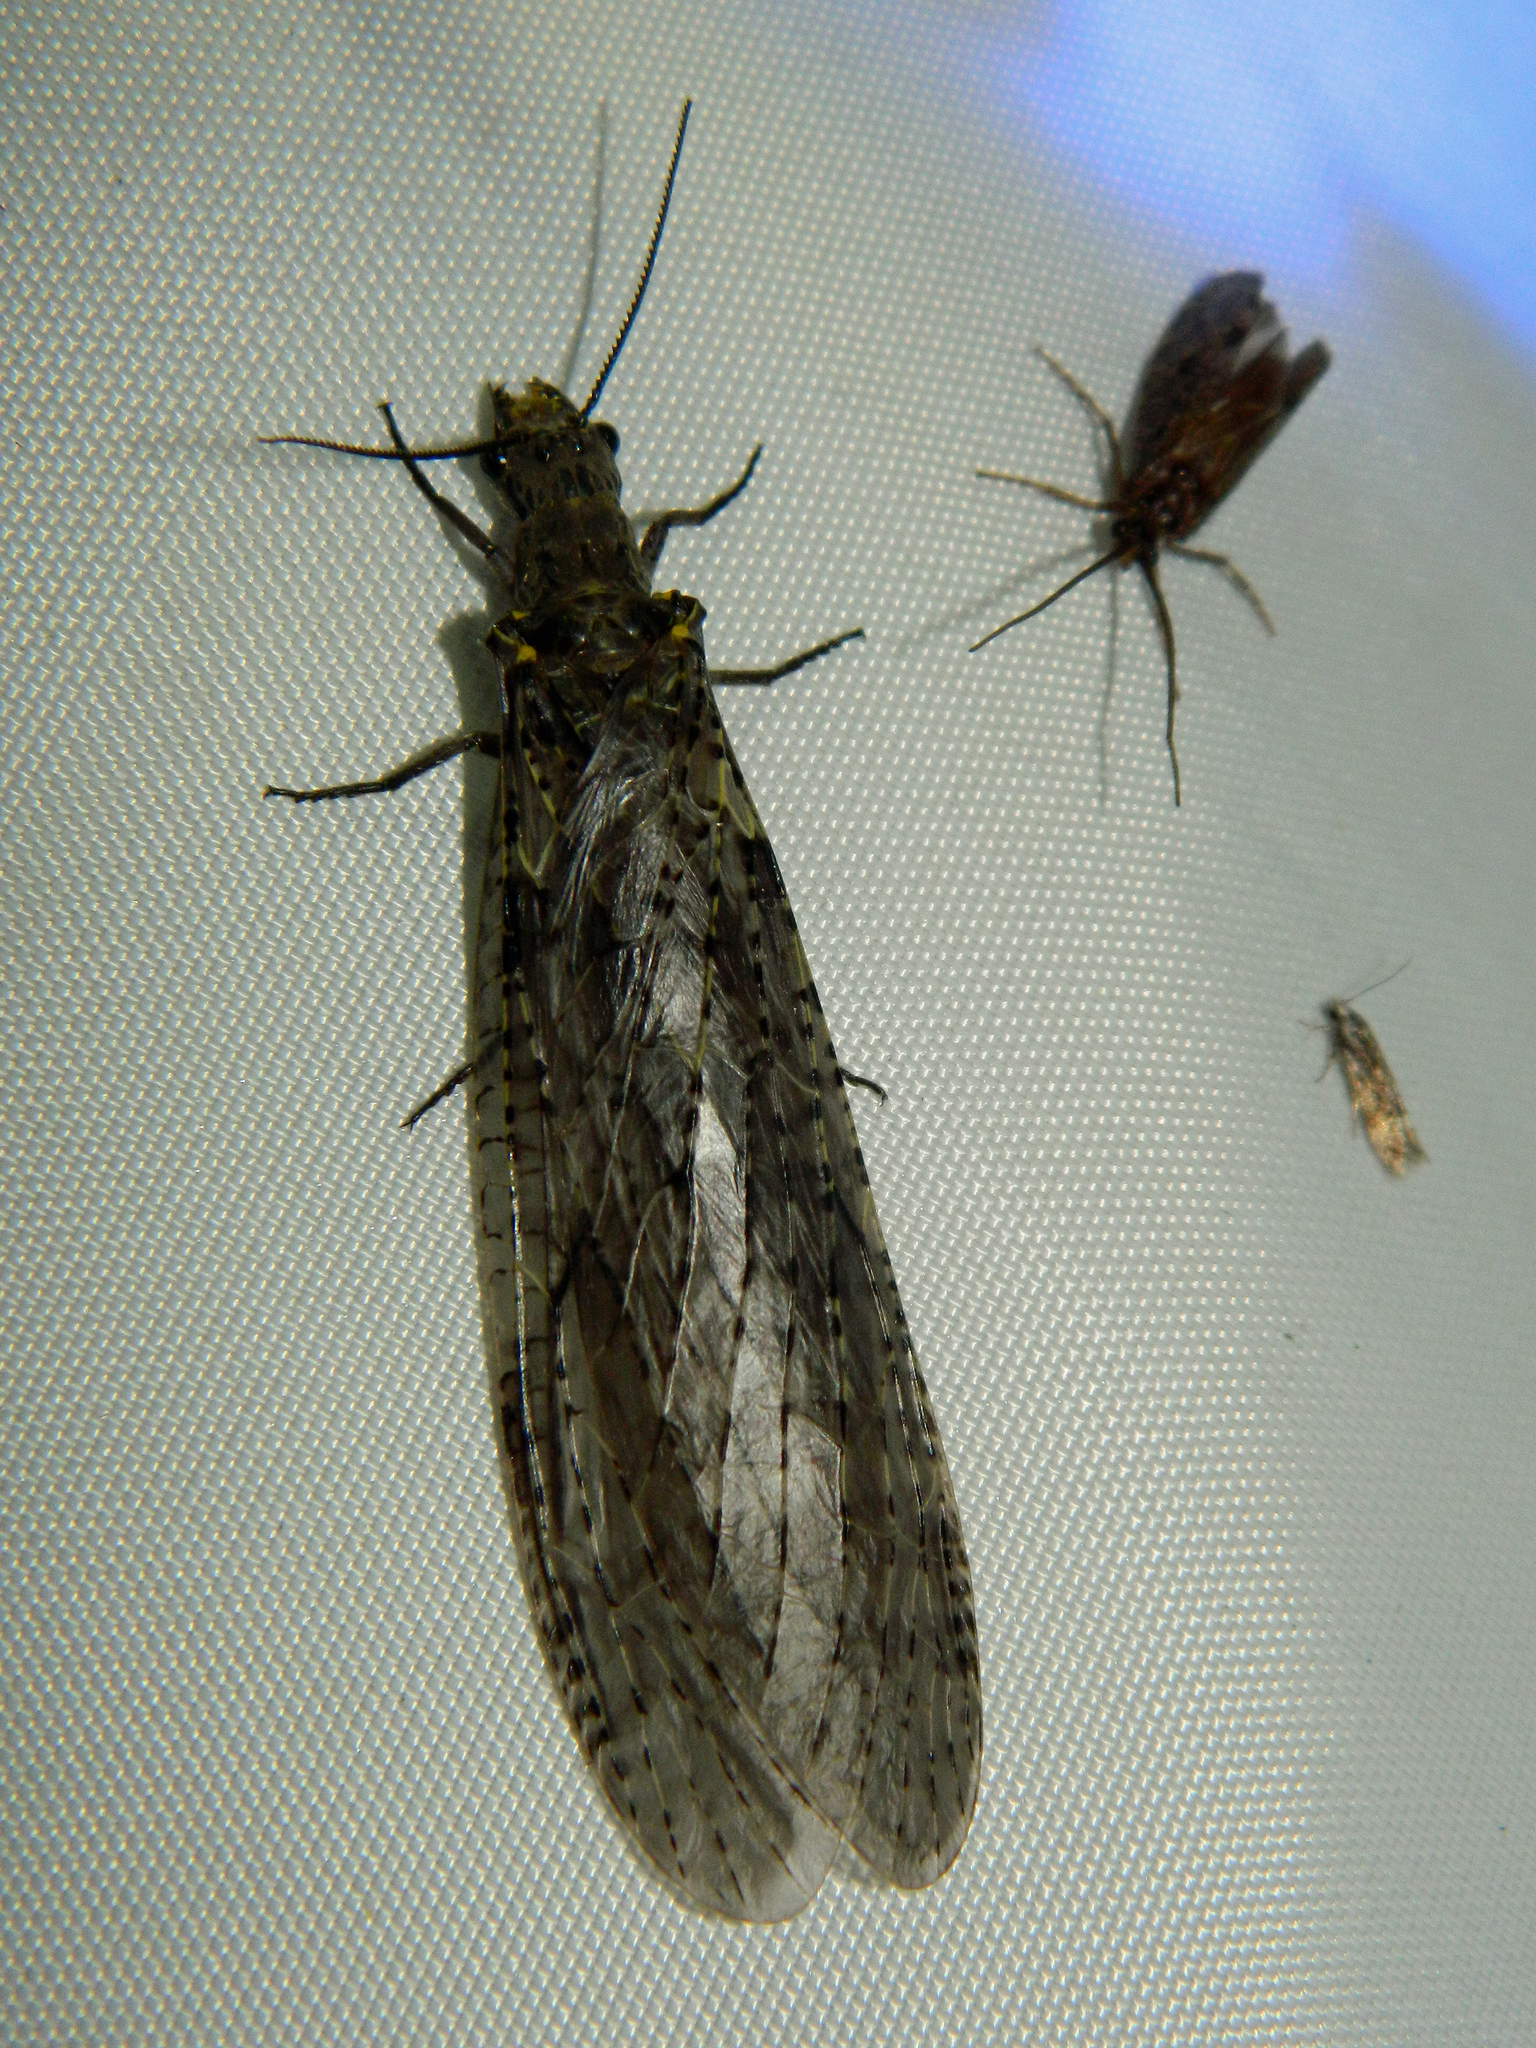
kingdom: Animalia
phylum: Arthropoda
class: Insecta
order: Megaloptera
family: Corydalidae
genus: Chauliodes
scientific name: Chauliodes rastricornis
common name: Spring fishfly
